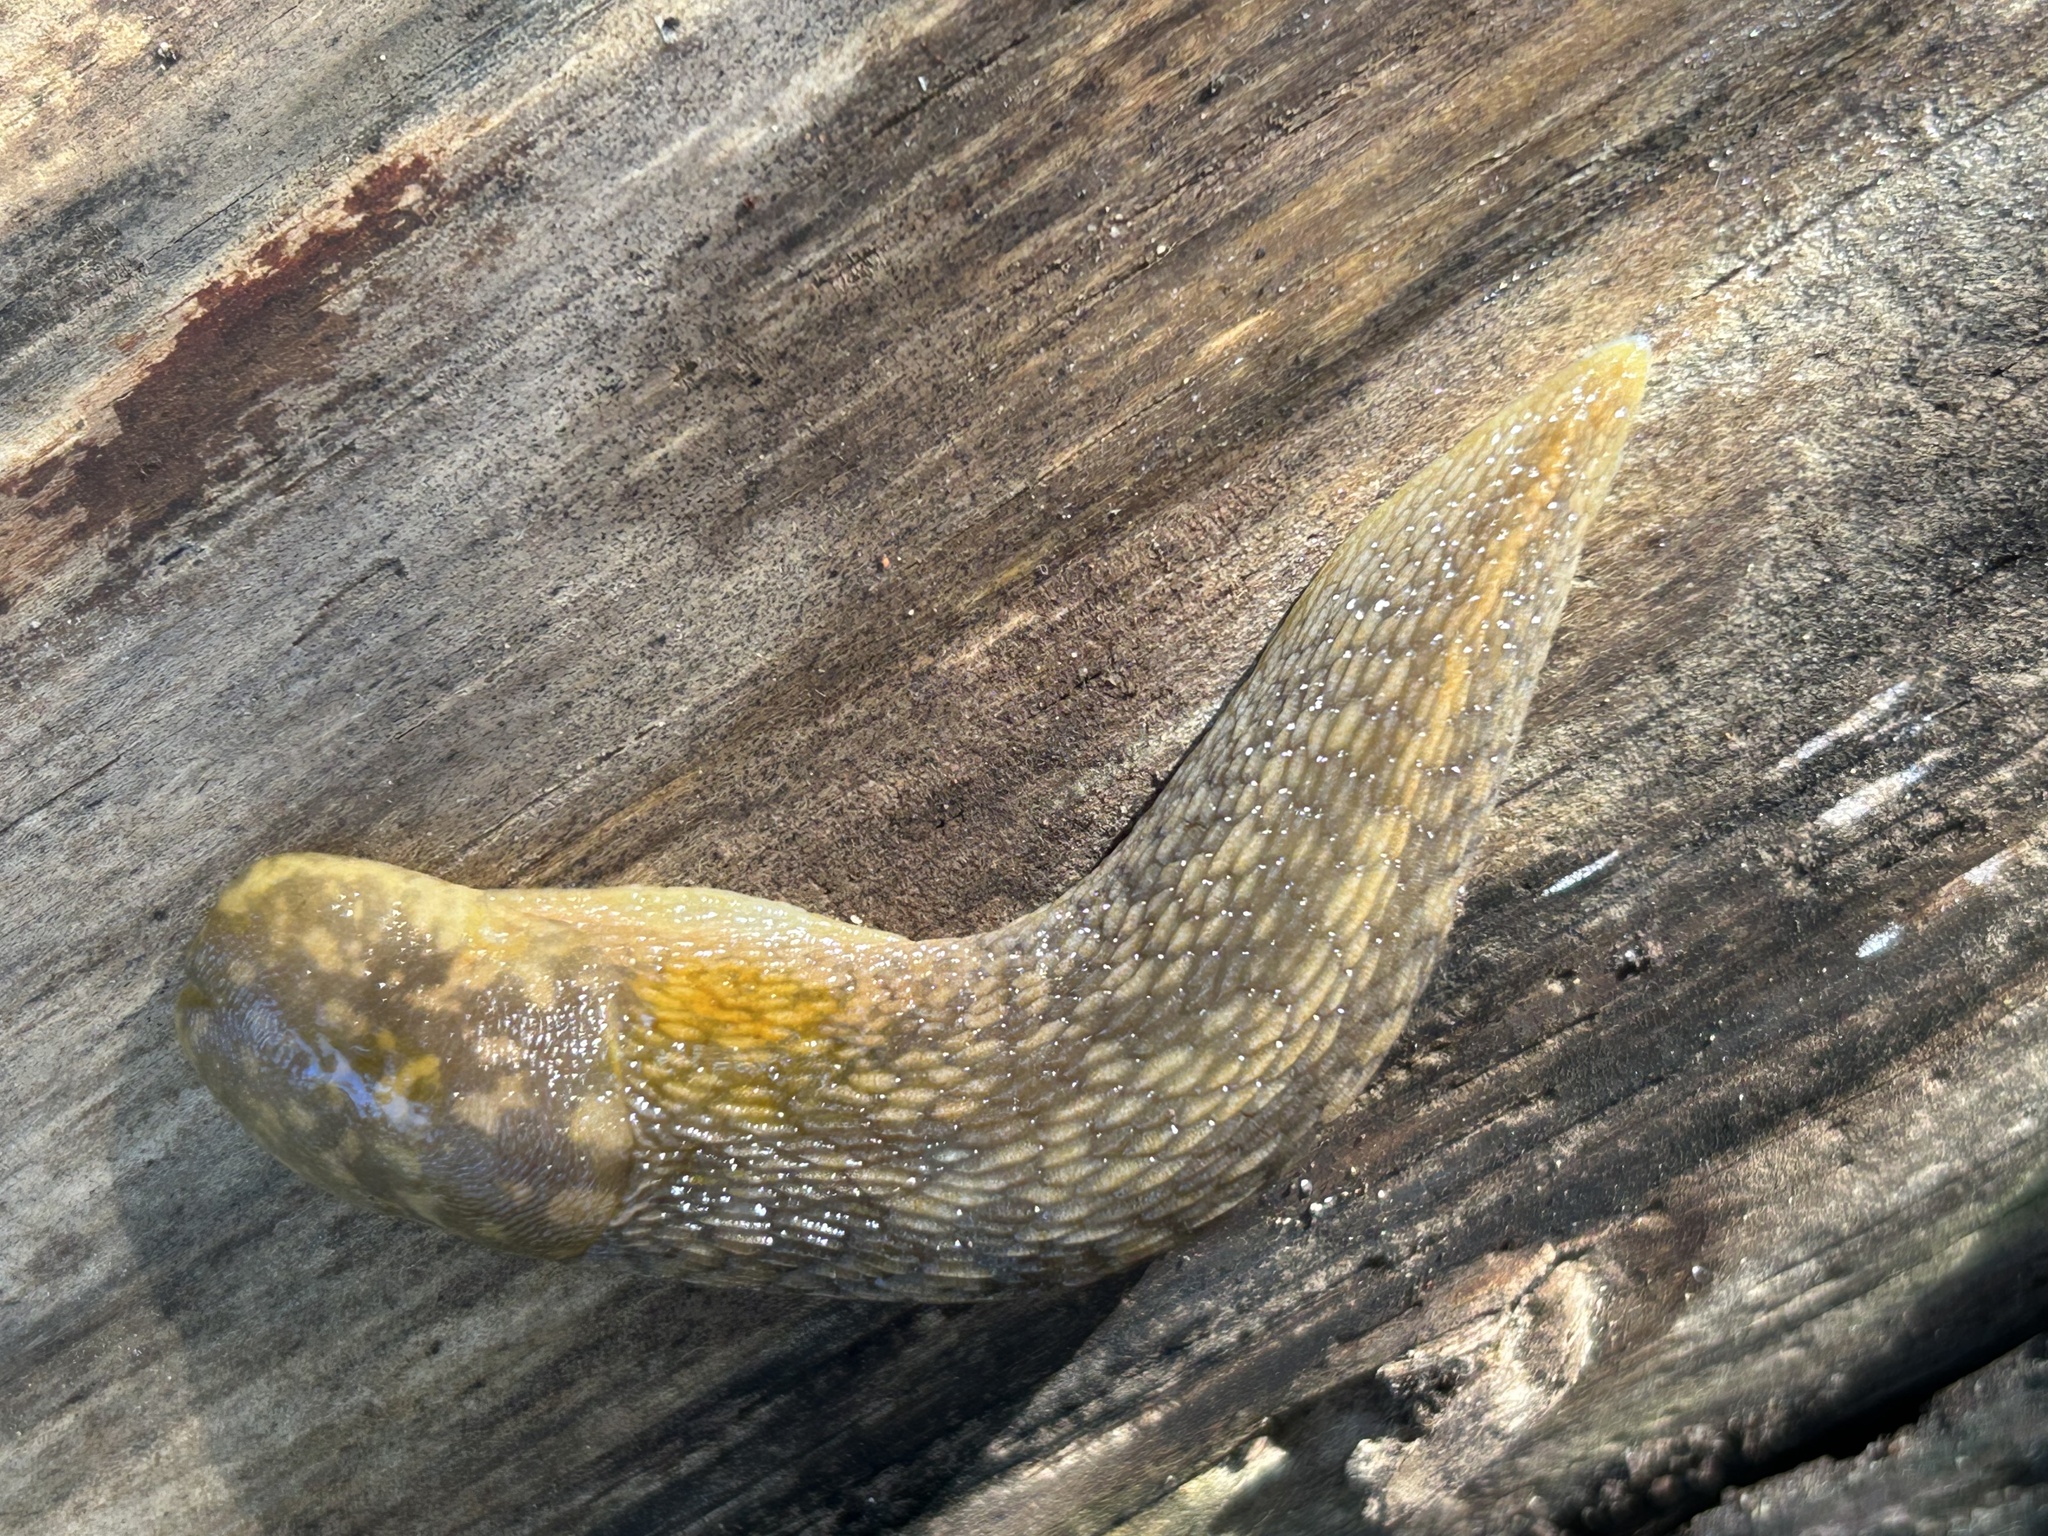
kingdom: Animalia
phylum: Mollusca
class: Gastropoda
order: Stylommatophora
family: Limacidae
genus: Limacus
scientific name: Limacus flavus
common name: Yellow gardenslug
